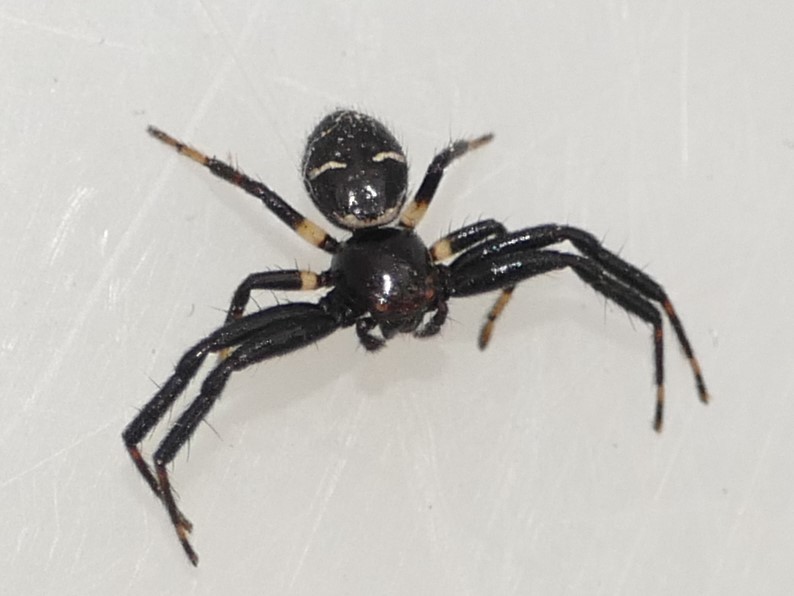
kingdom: Animalia
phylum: Arthropoda
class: Arachnida
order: Araneae
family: Thomisidae
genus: Synema
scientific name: Synema globosum
